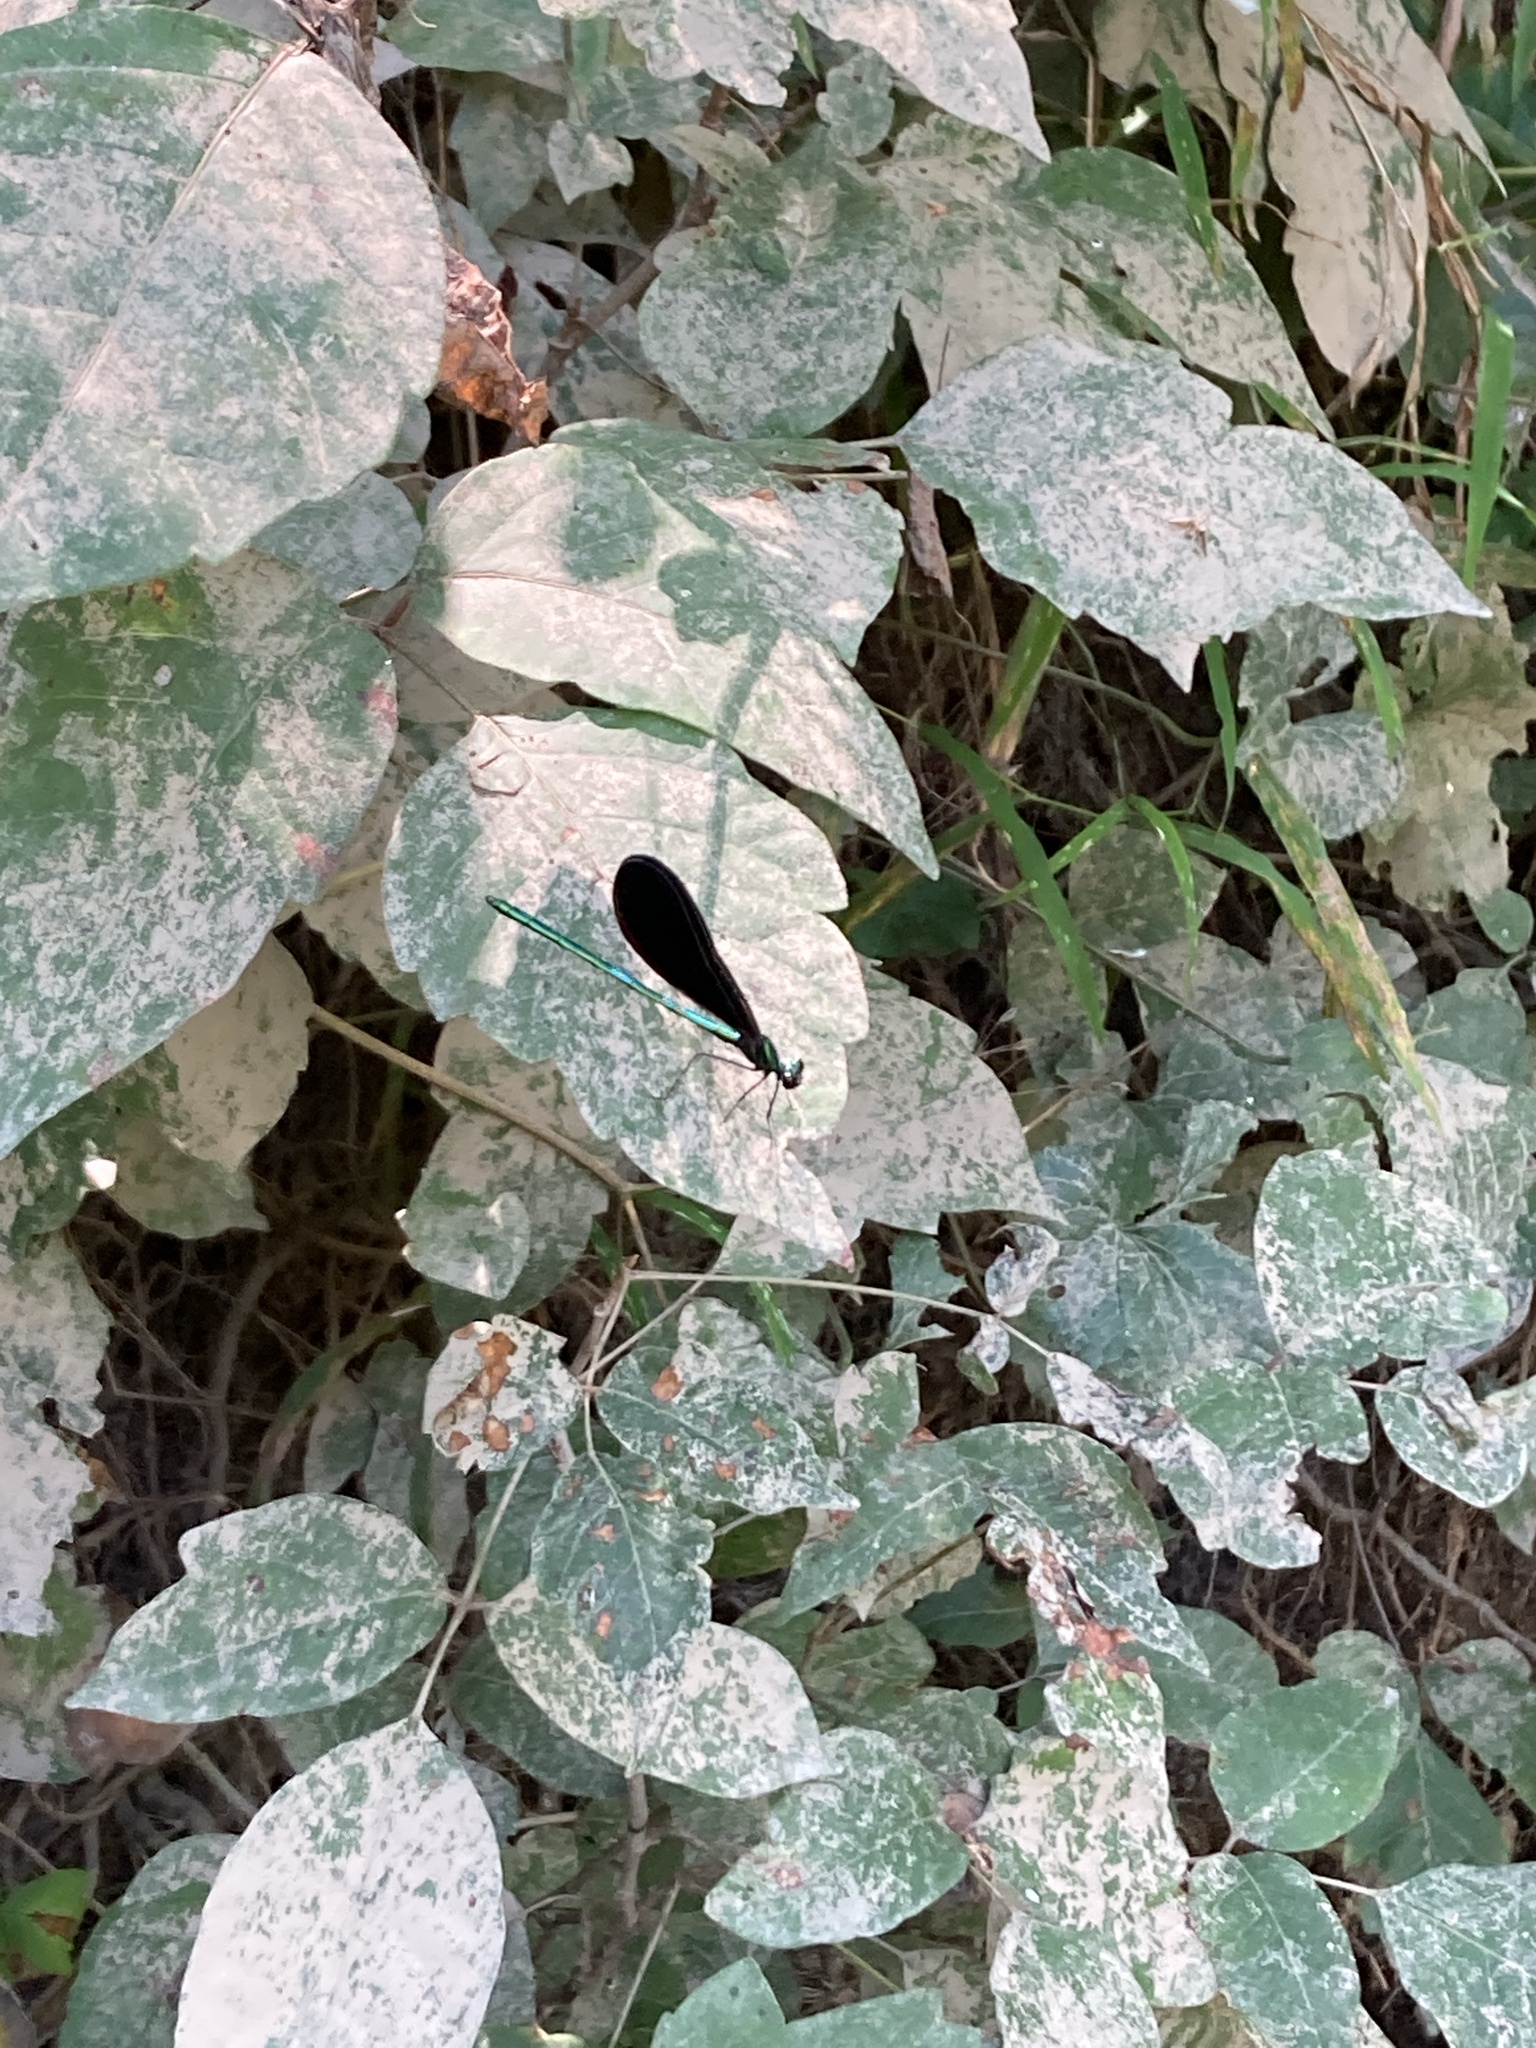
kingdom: Animalia
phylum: Arthropoda
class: Insecta
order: Odonata
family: Calopterygidae
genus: Calopteryx
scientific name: Calopteryx maculata
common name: Ebony jewelwing
